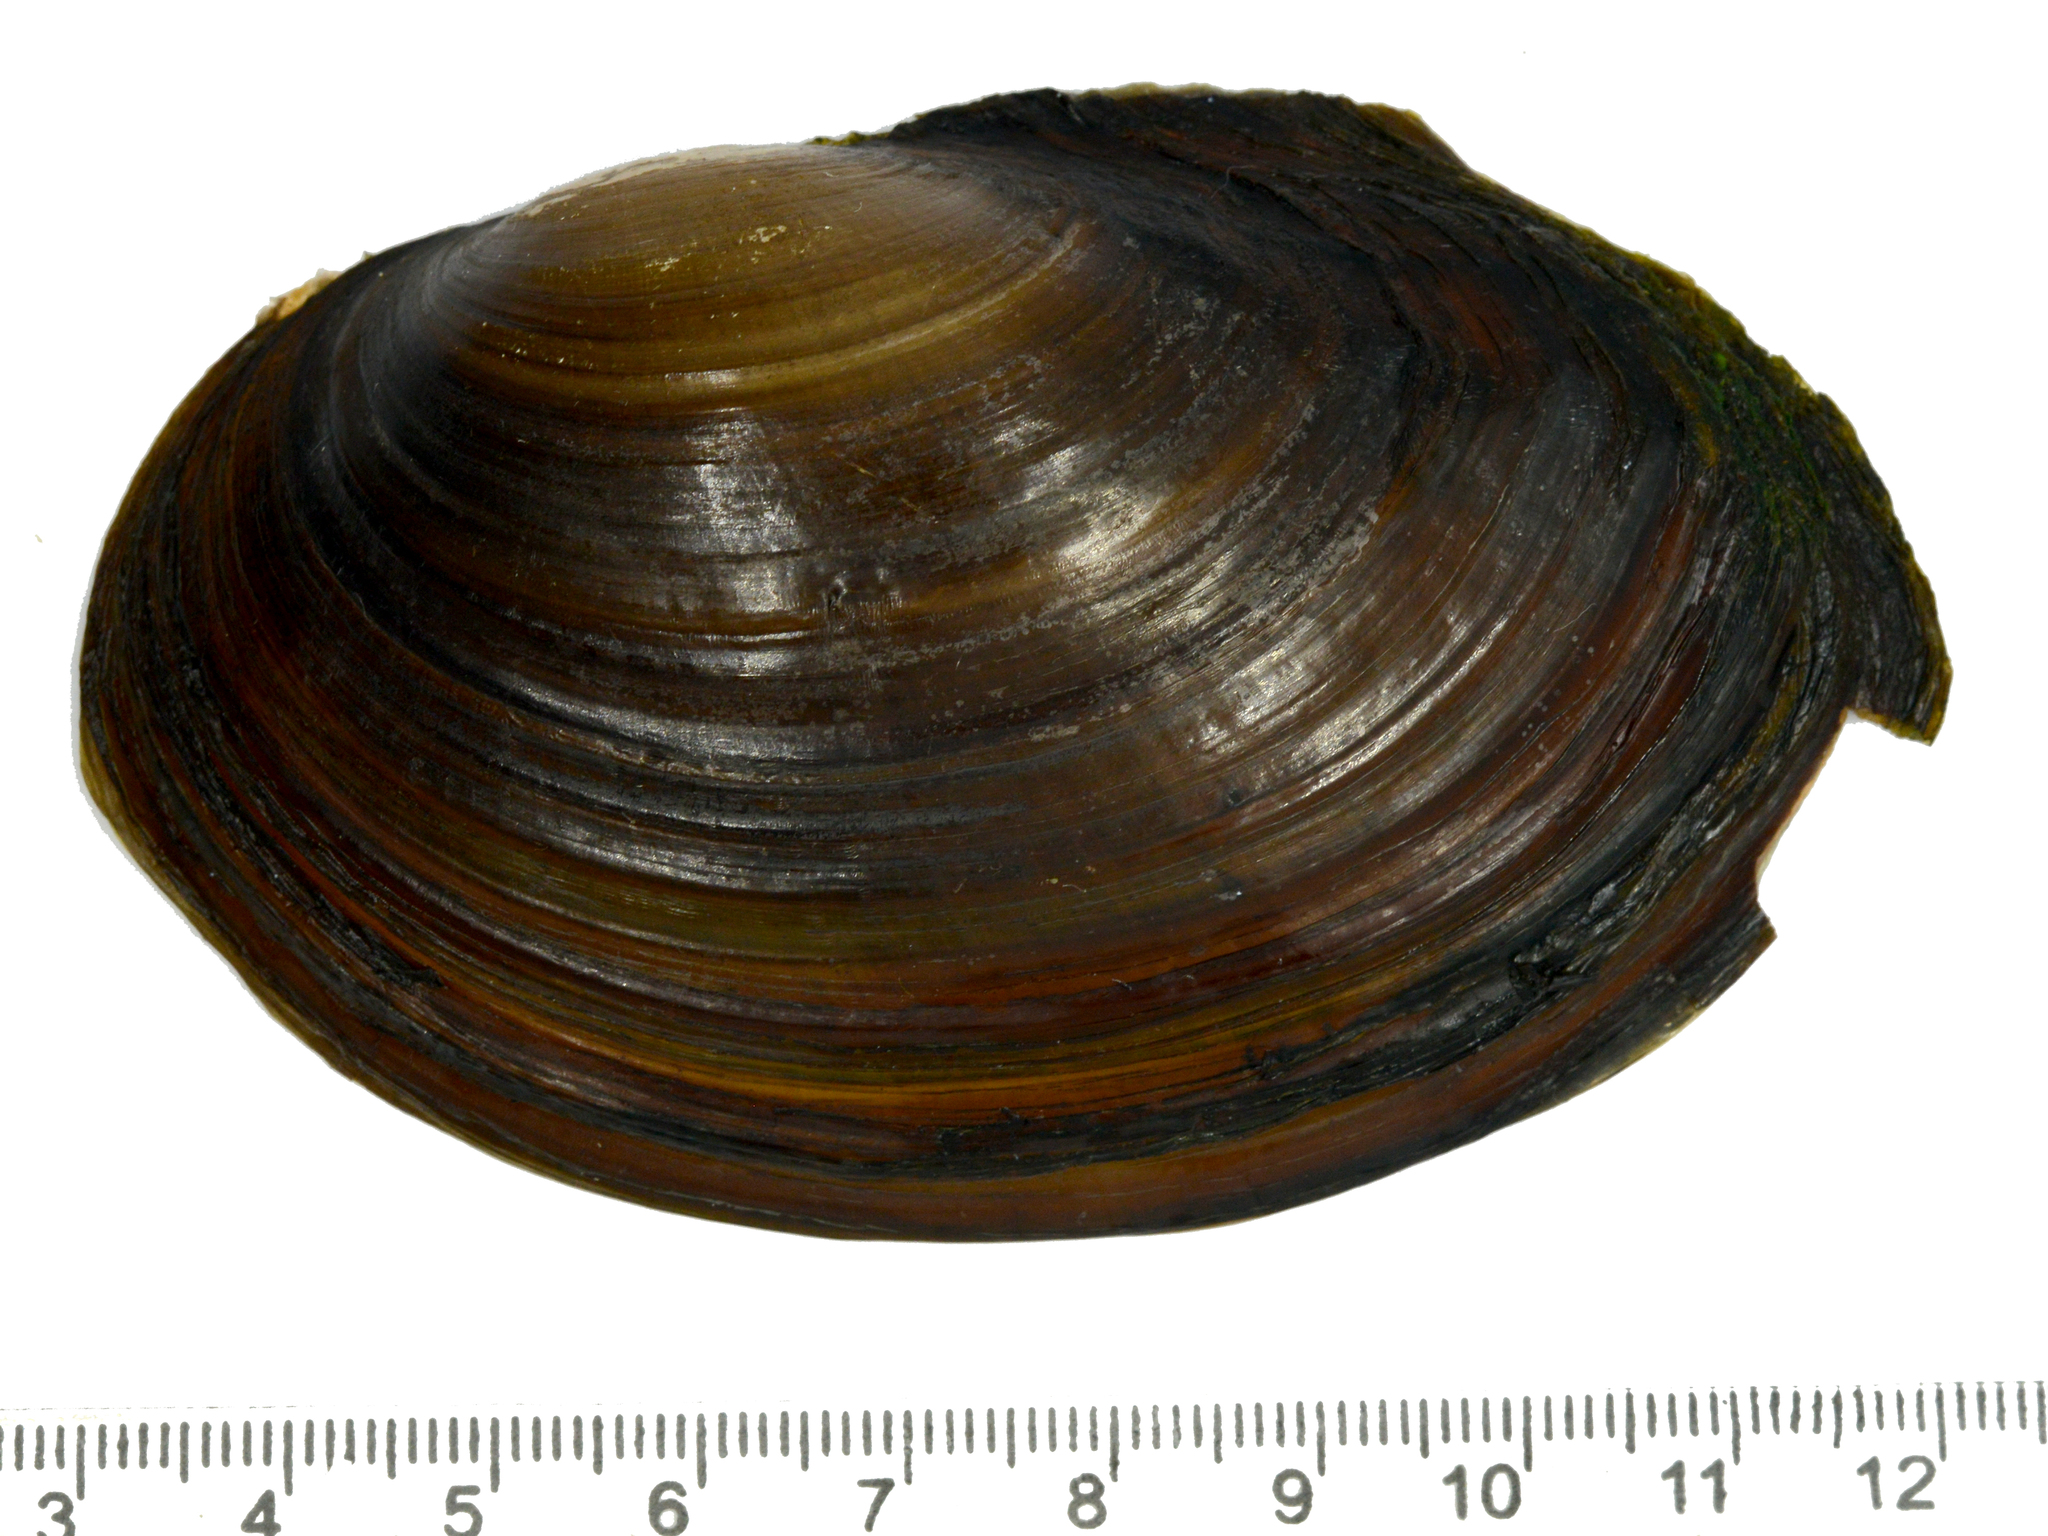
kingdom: Animalia
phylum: Mollusca
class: Bivalvia
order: Unionida
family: Unionidae
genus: Sinanodonta
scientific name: Sinanodonta lauta
